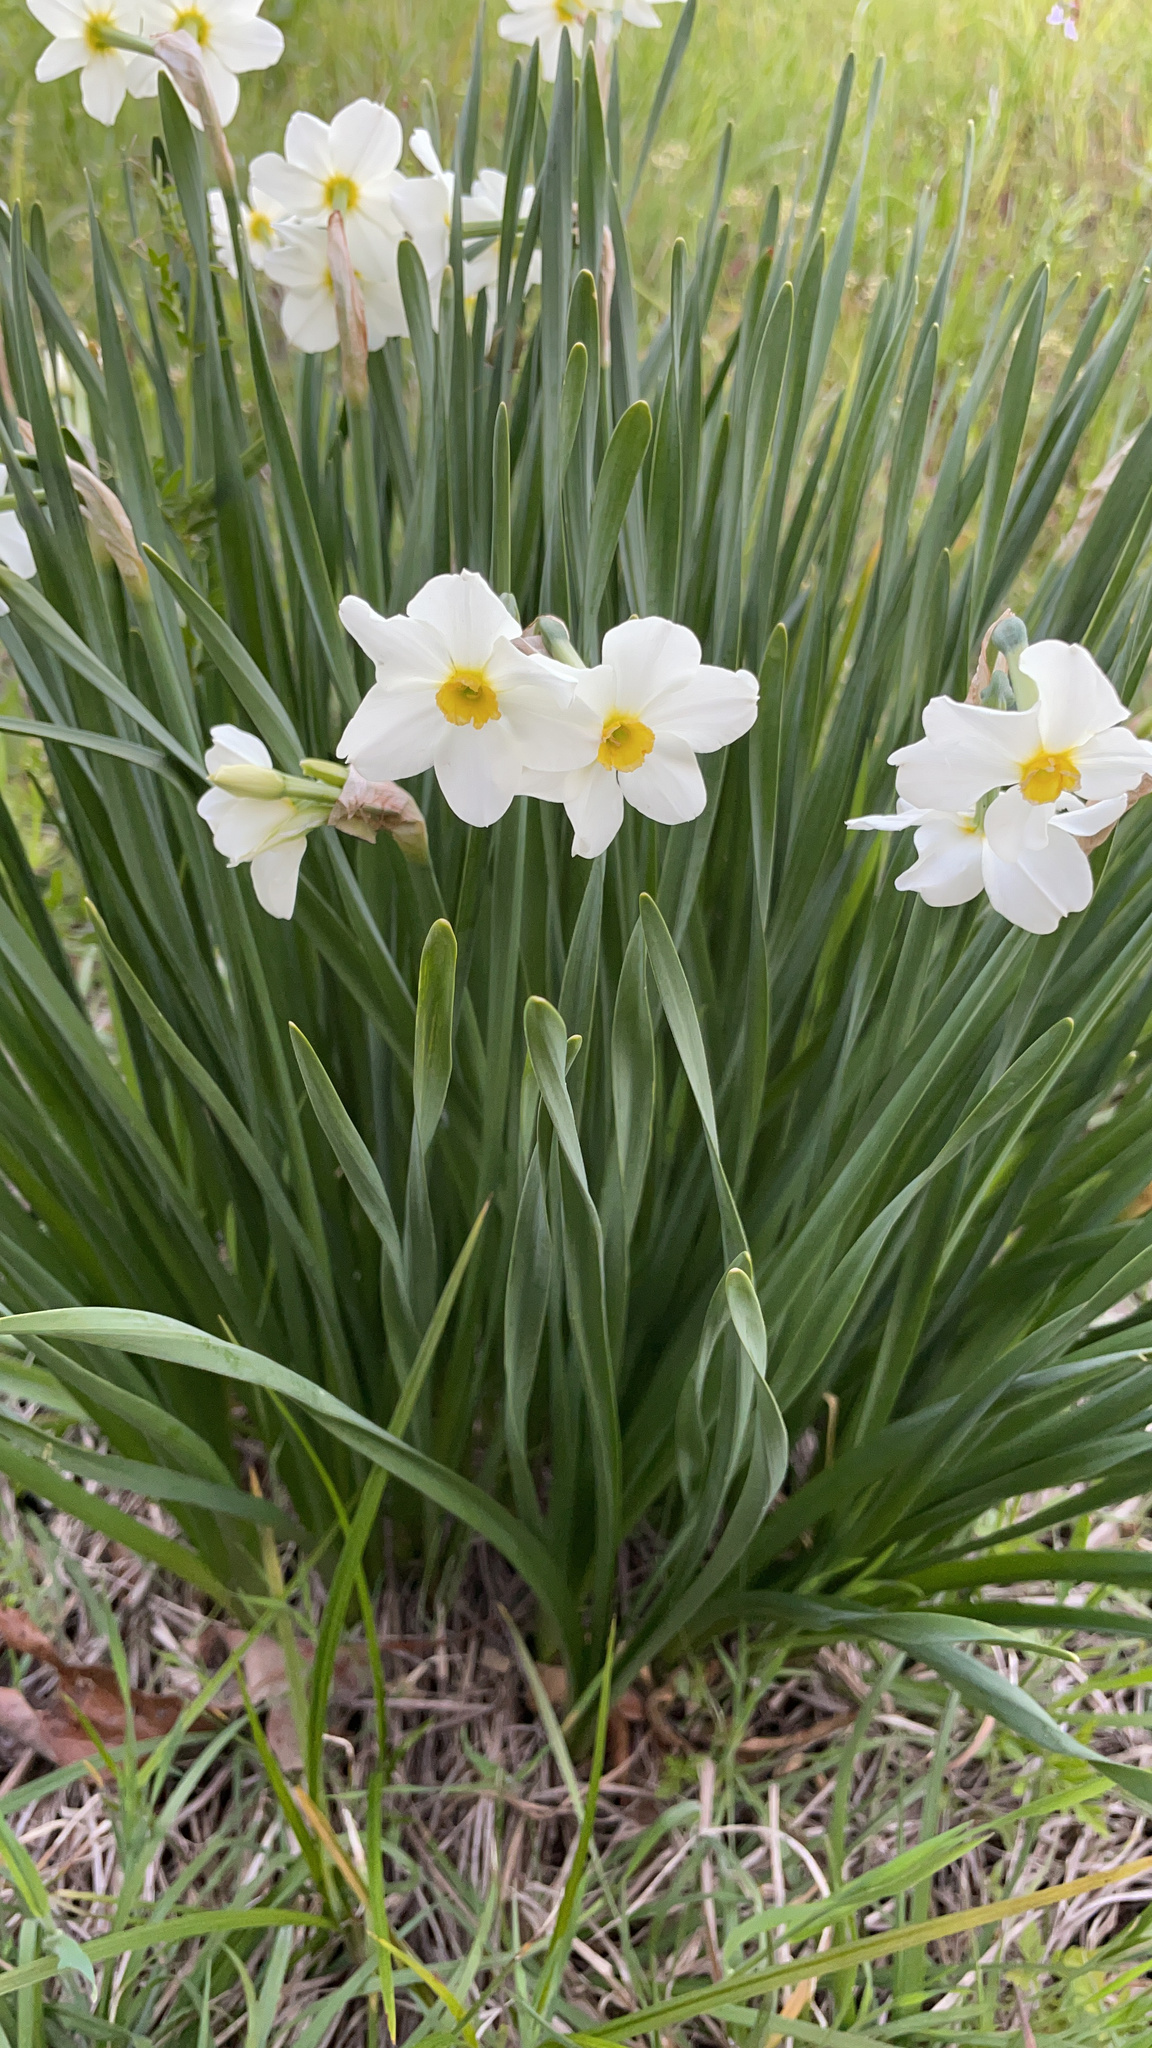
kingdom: Plantae
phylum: Tracheophyta
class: Liliopsida
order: Asparagales
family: Amaryllidaceae
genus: Narcissus
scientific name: Narcissus medioluteus
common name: Primrose-peerless
